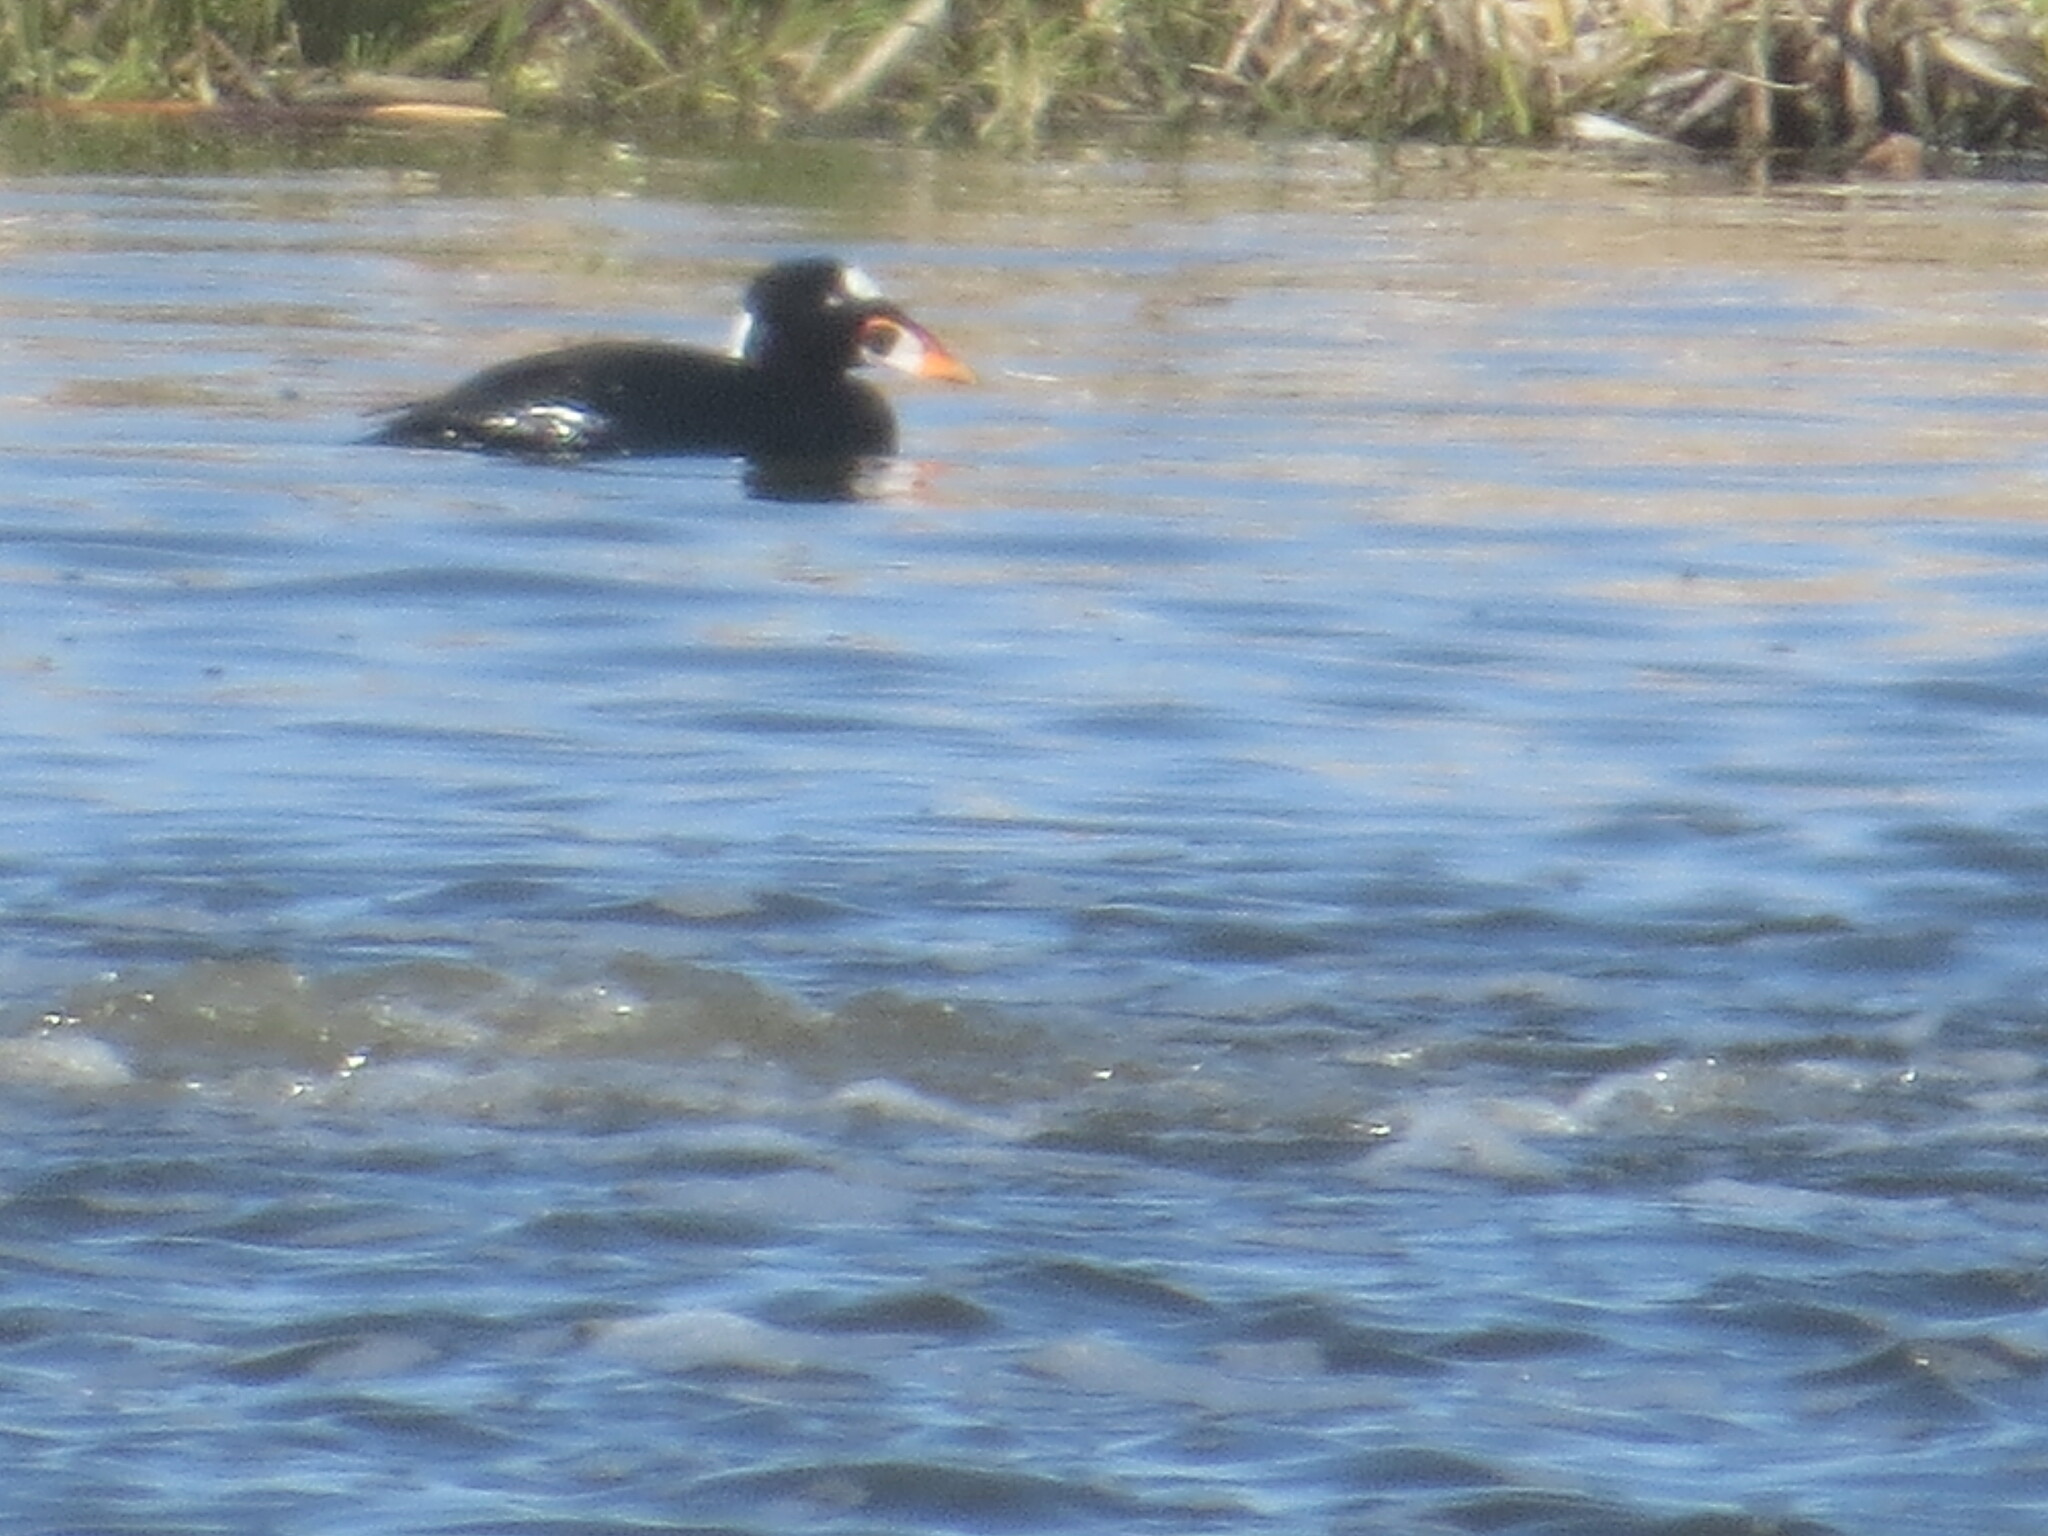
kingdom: Animalia
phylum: Chordata
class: Aves
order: Anseriformes
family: Anatidae
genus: Melanitta
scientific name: Melanitta perspicillata
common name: Surf scoter
